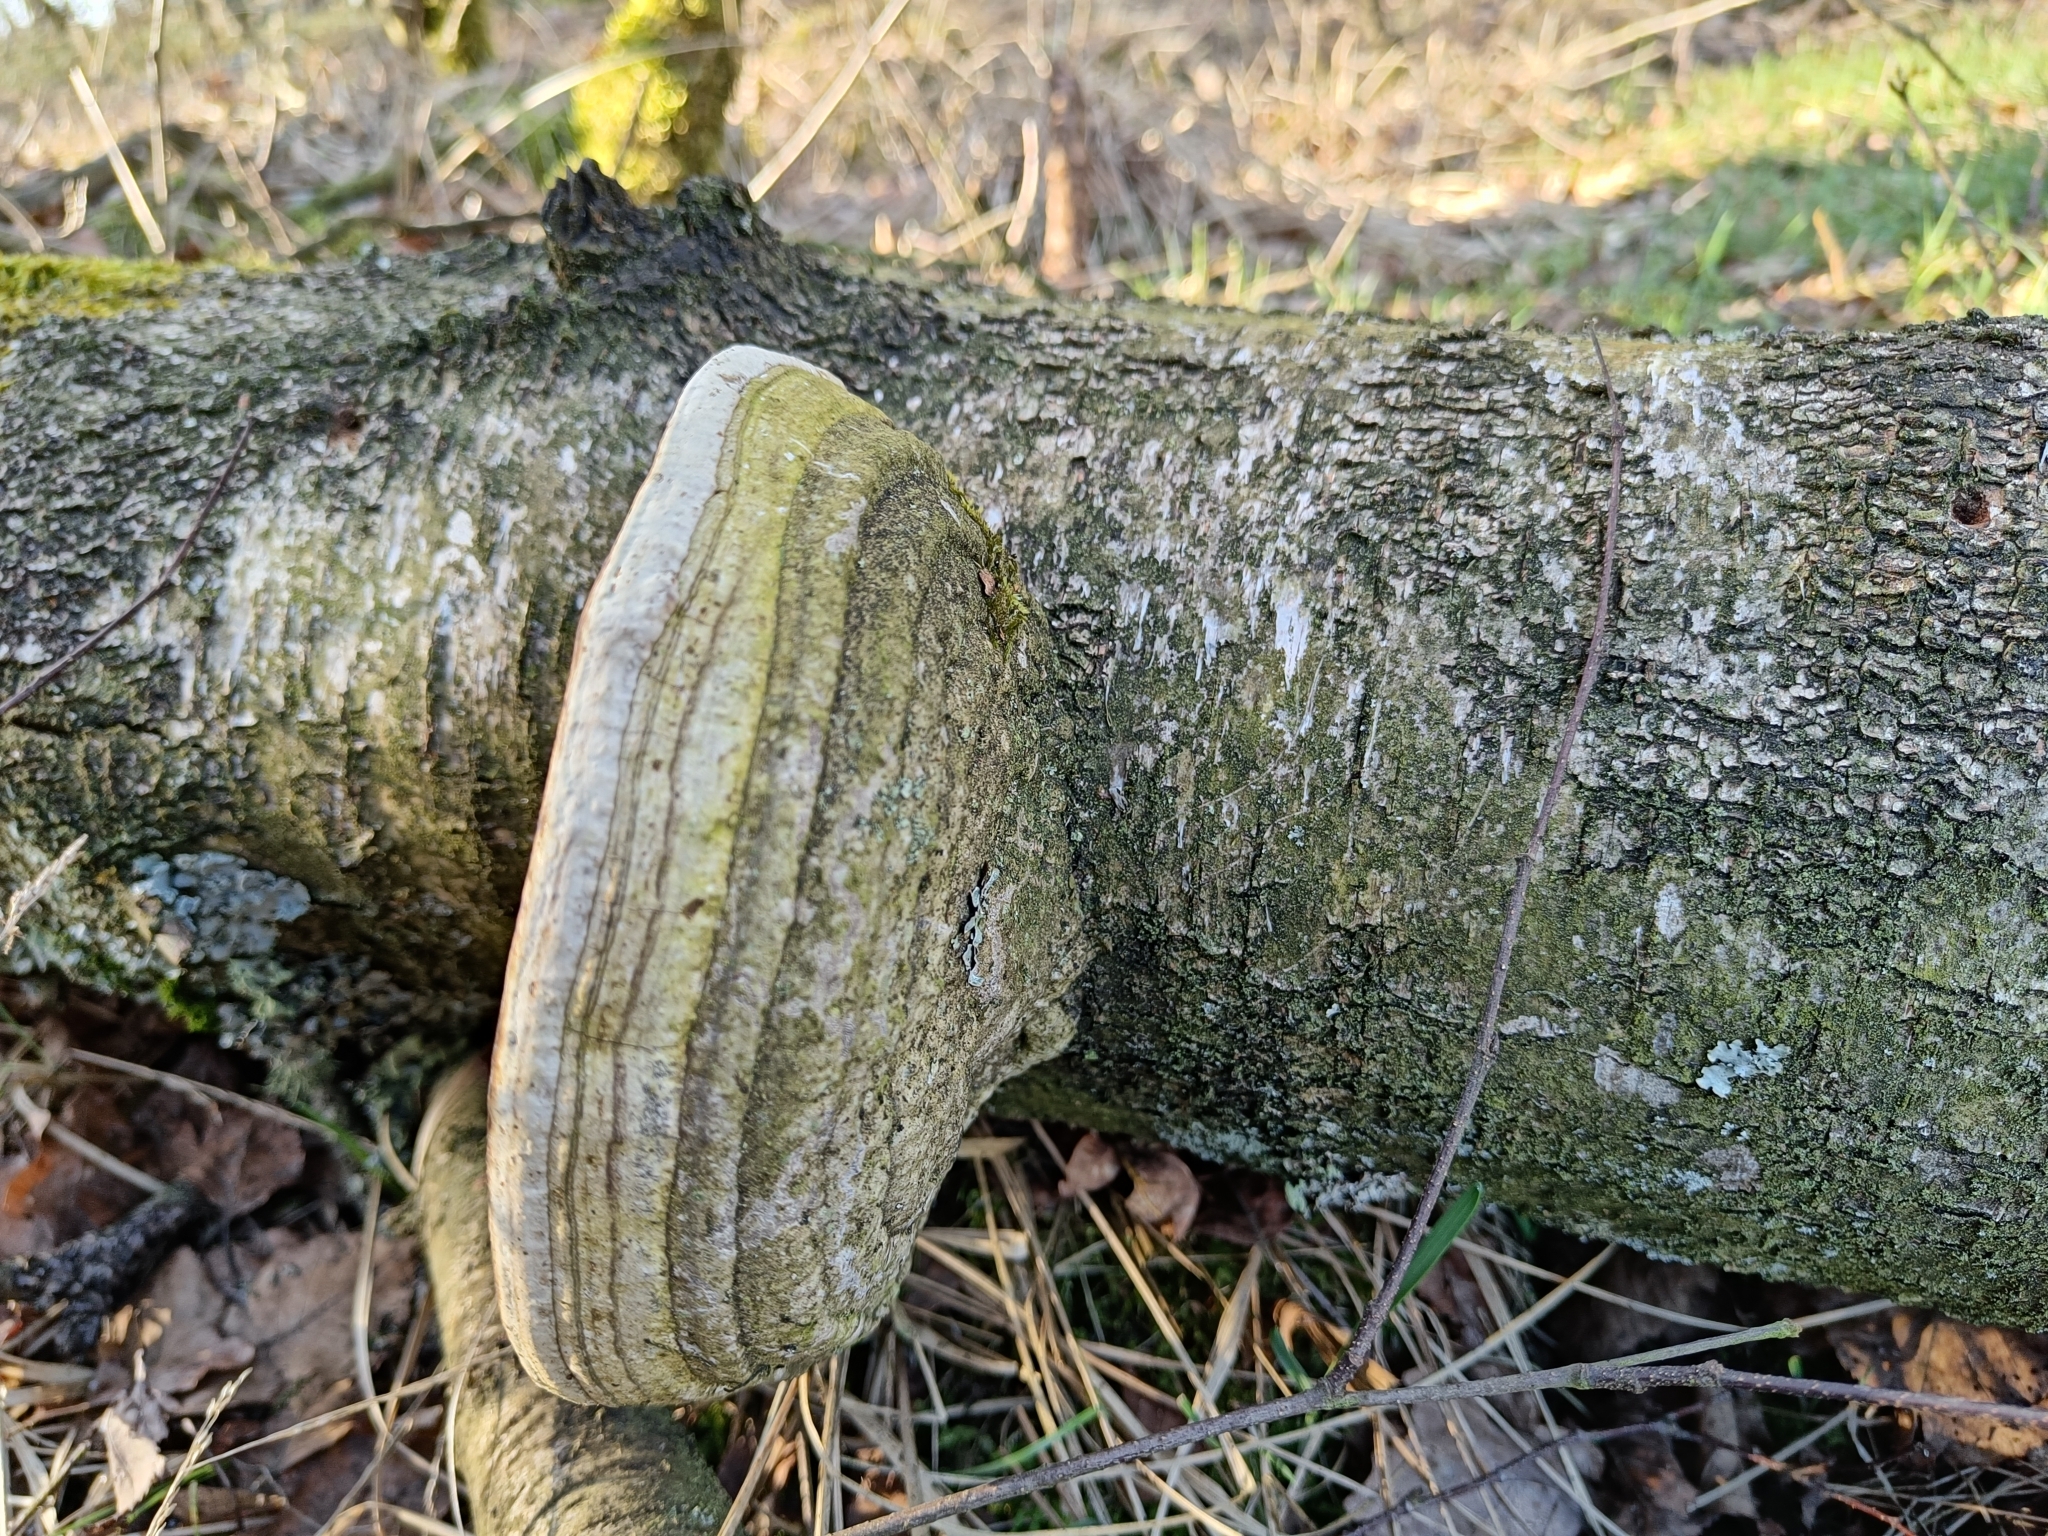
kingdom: Fungi
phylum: Basidiomycota
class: Agaricomycetes
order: Polyporales
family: Fomitopsidaceae
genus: Fomitopsis
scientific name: Fomitopsis betulina
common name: Birch polypore
